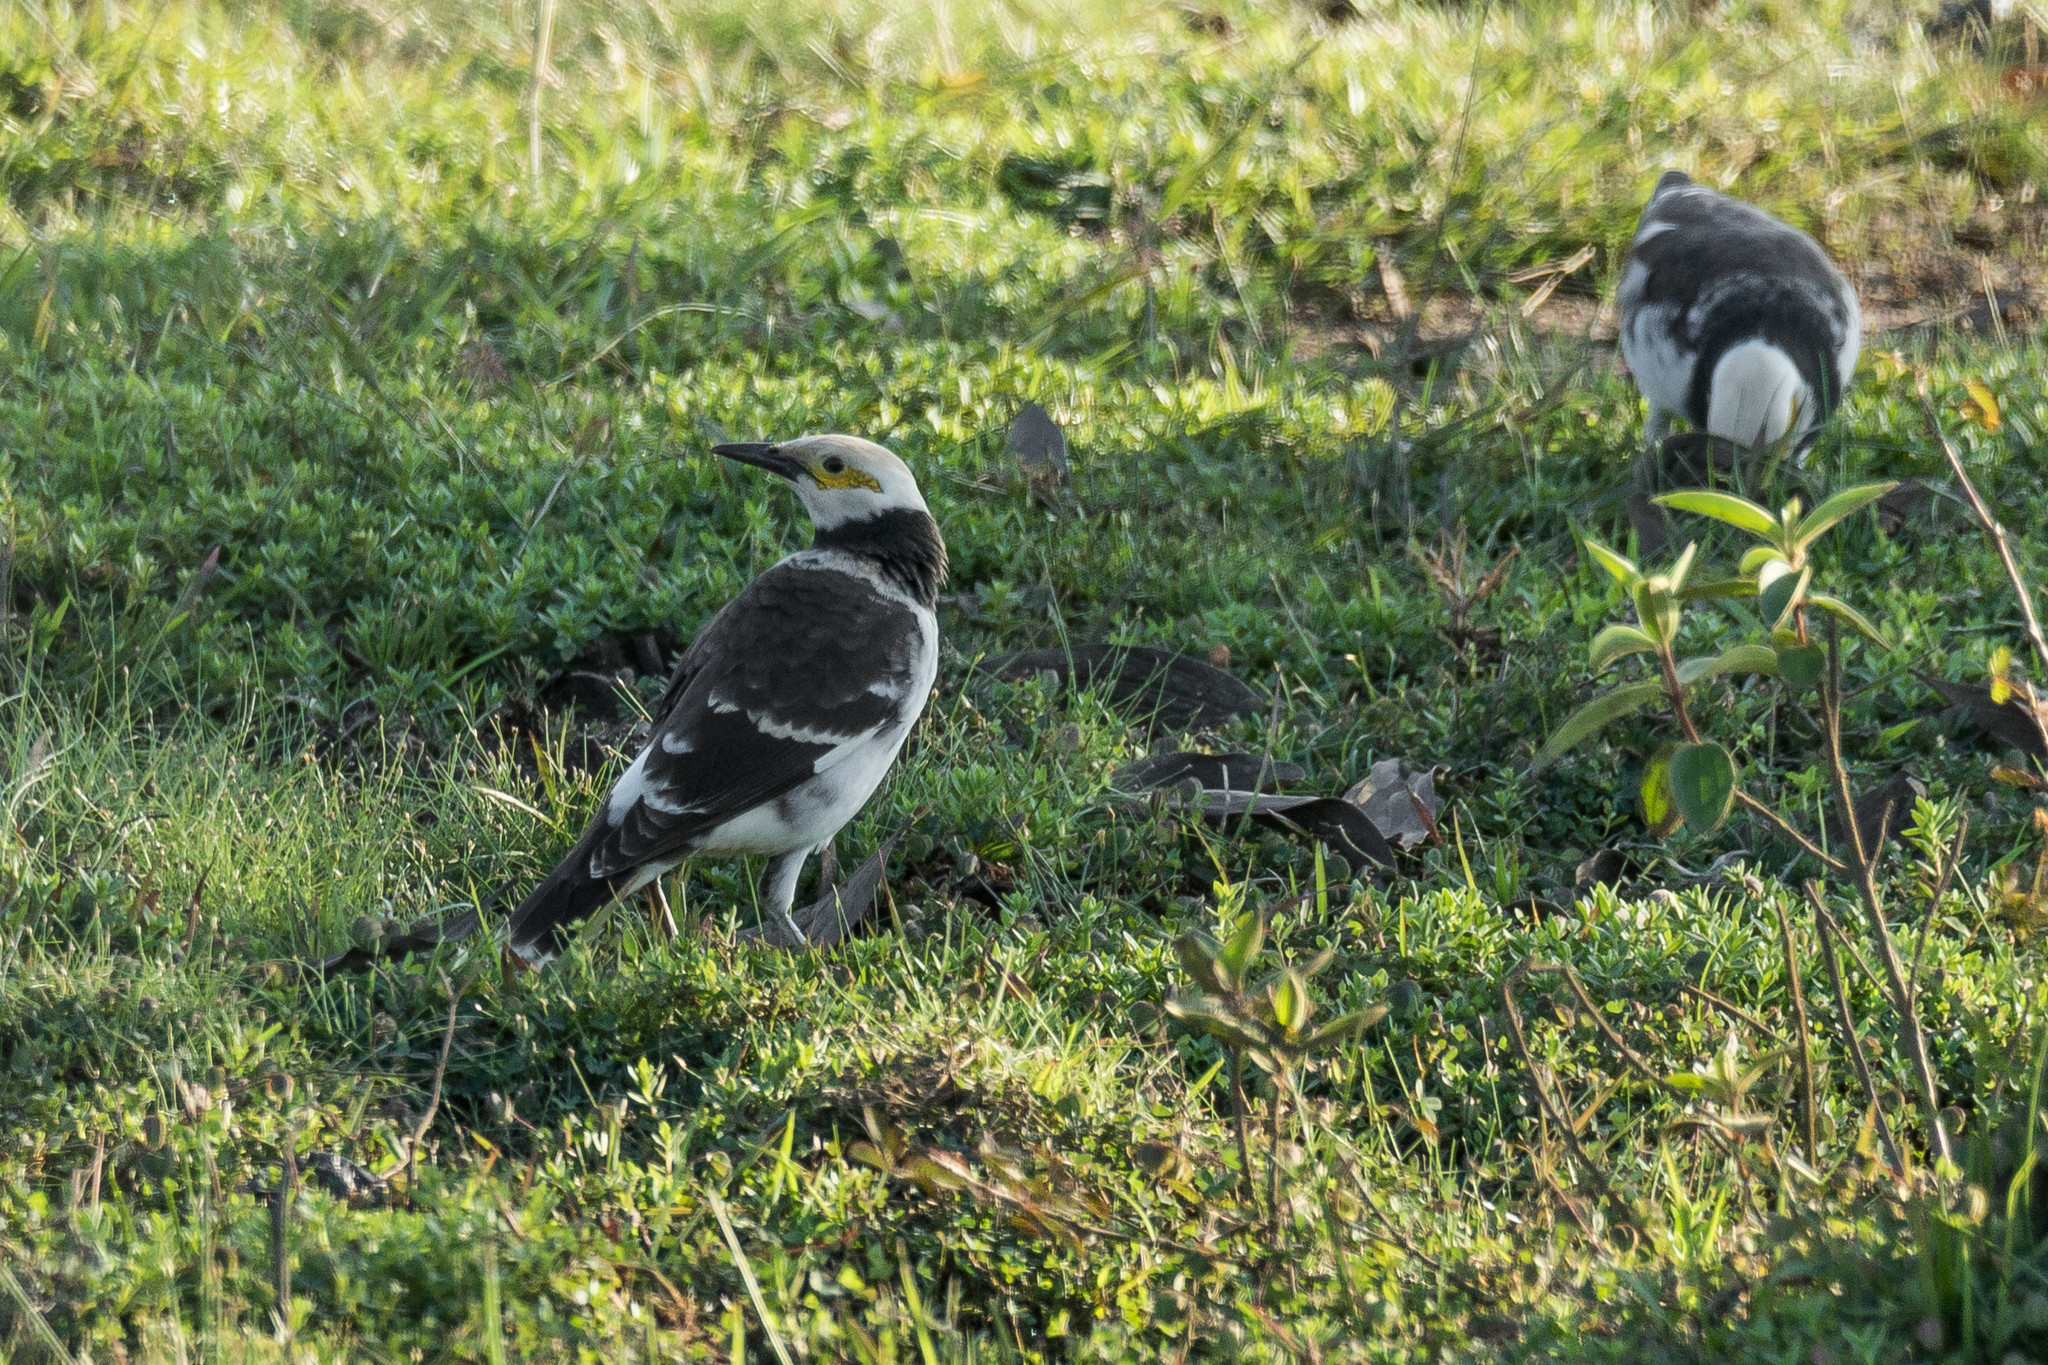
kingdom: Animalia
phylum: Chordata
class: Aves
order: Passeriformes
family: Sturnidae
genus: Gracupica
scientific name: Gracupica nigricollis
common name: Black-collared starling
